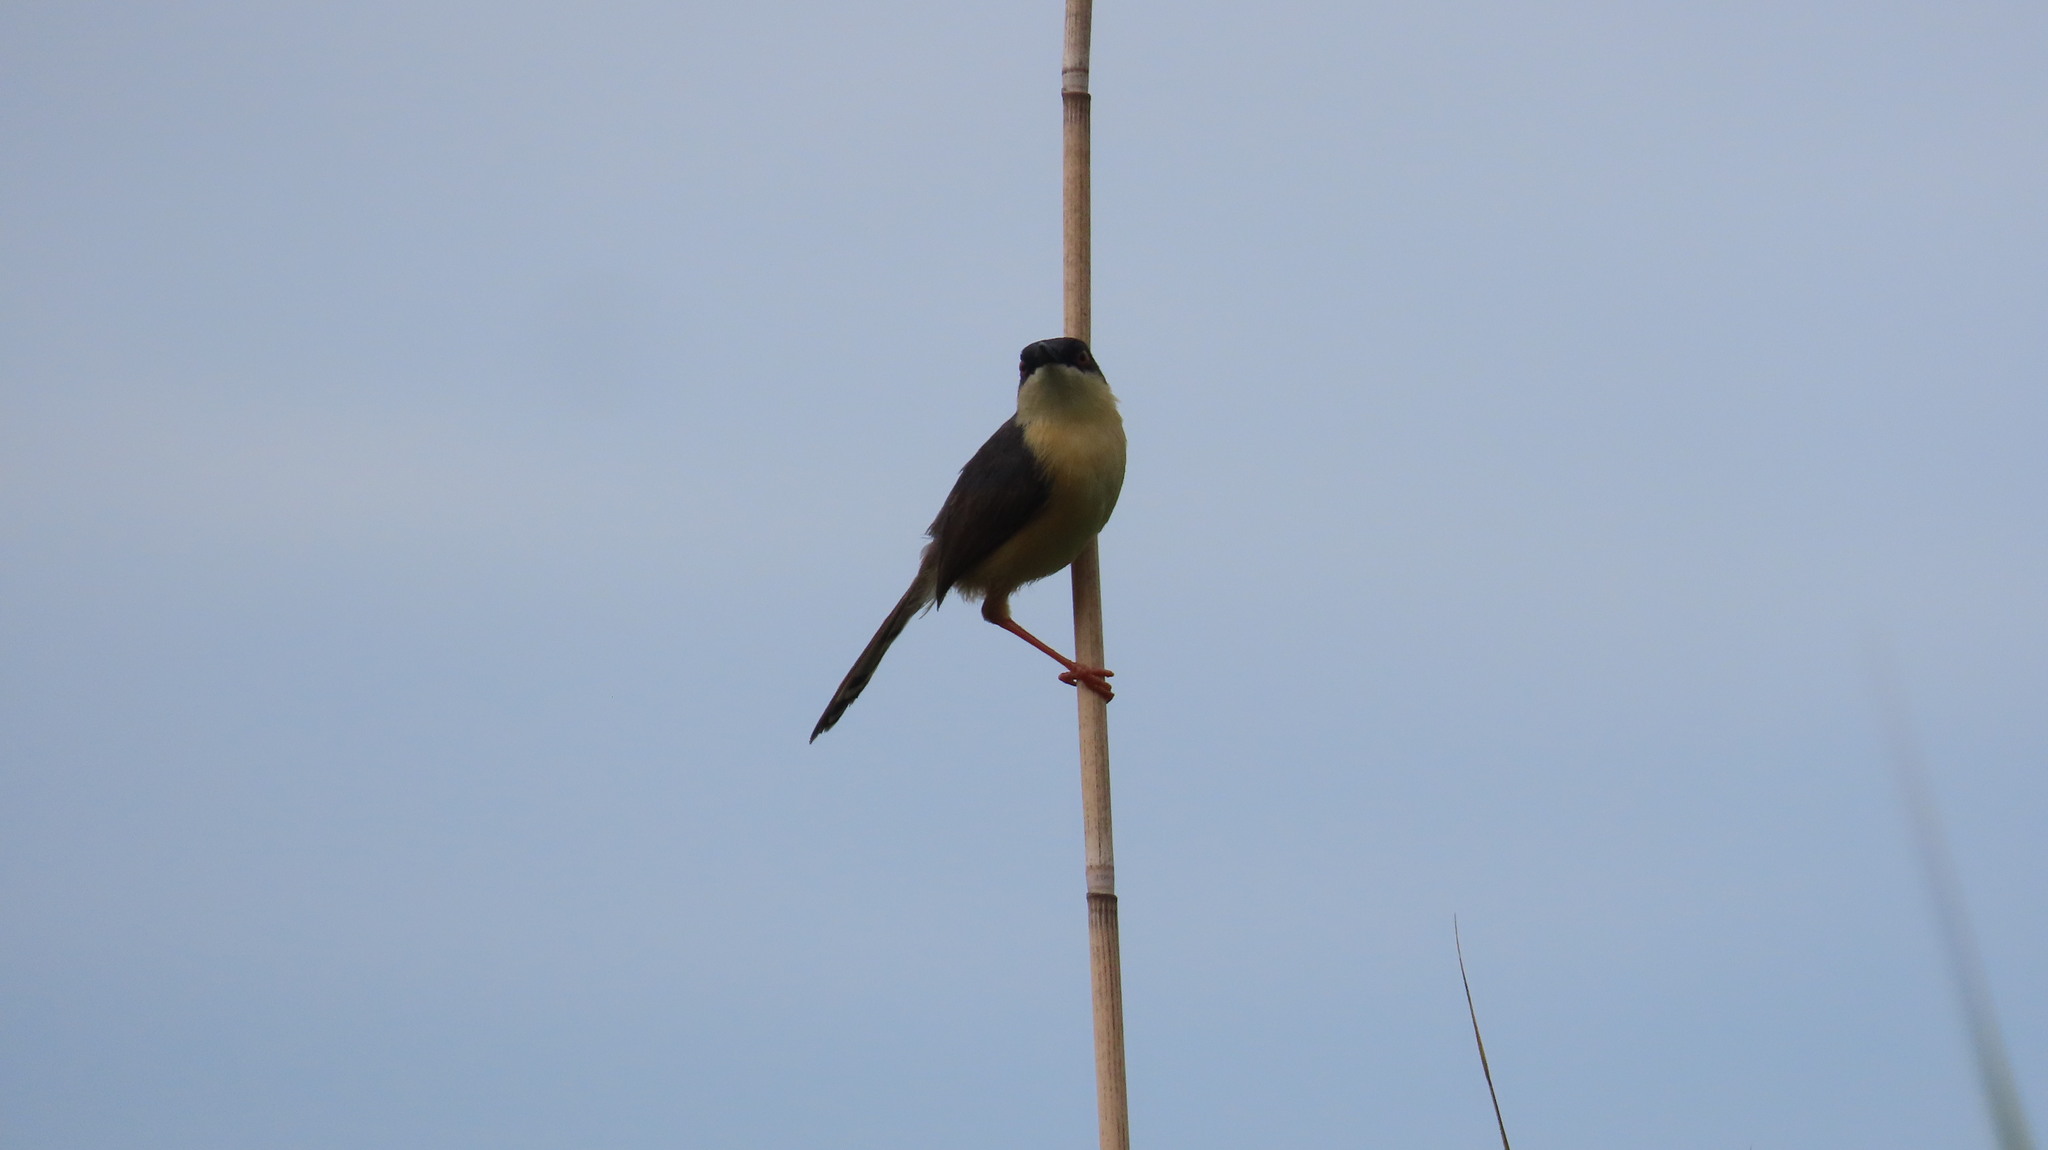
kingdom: Animalia
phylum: Chordata
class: Aves
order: Passeriformes
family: Cisticolidae
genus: Prinia
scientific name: Prinia socialis
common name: Ashy prinia
